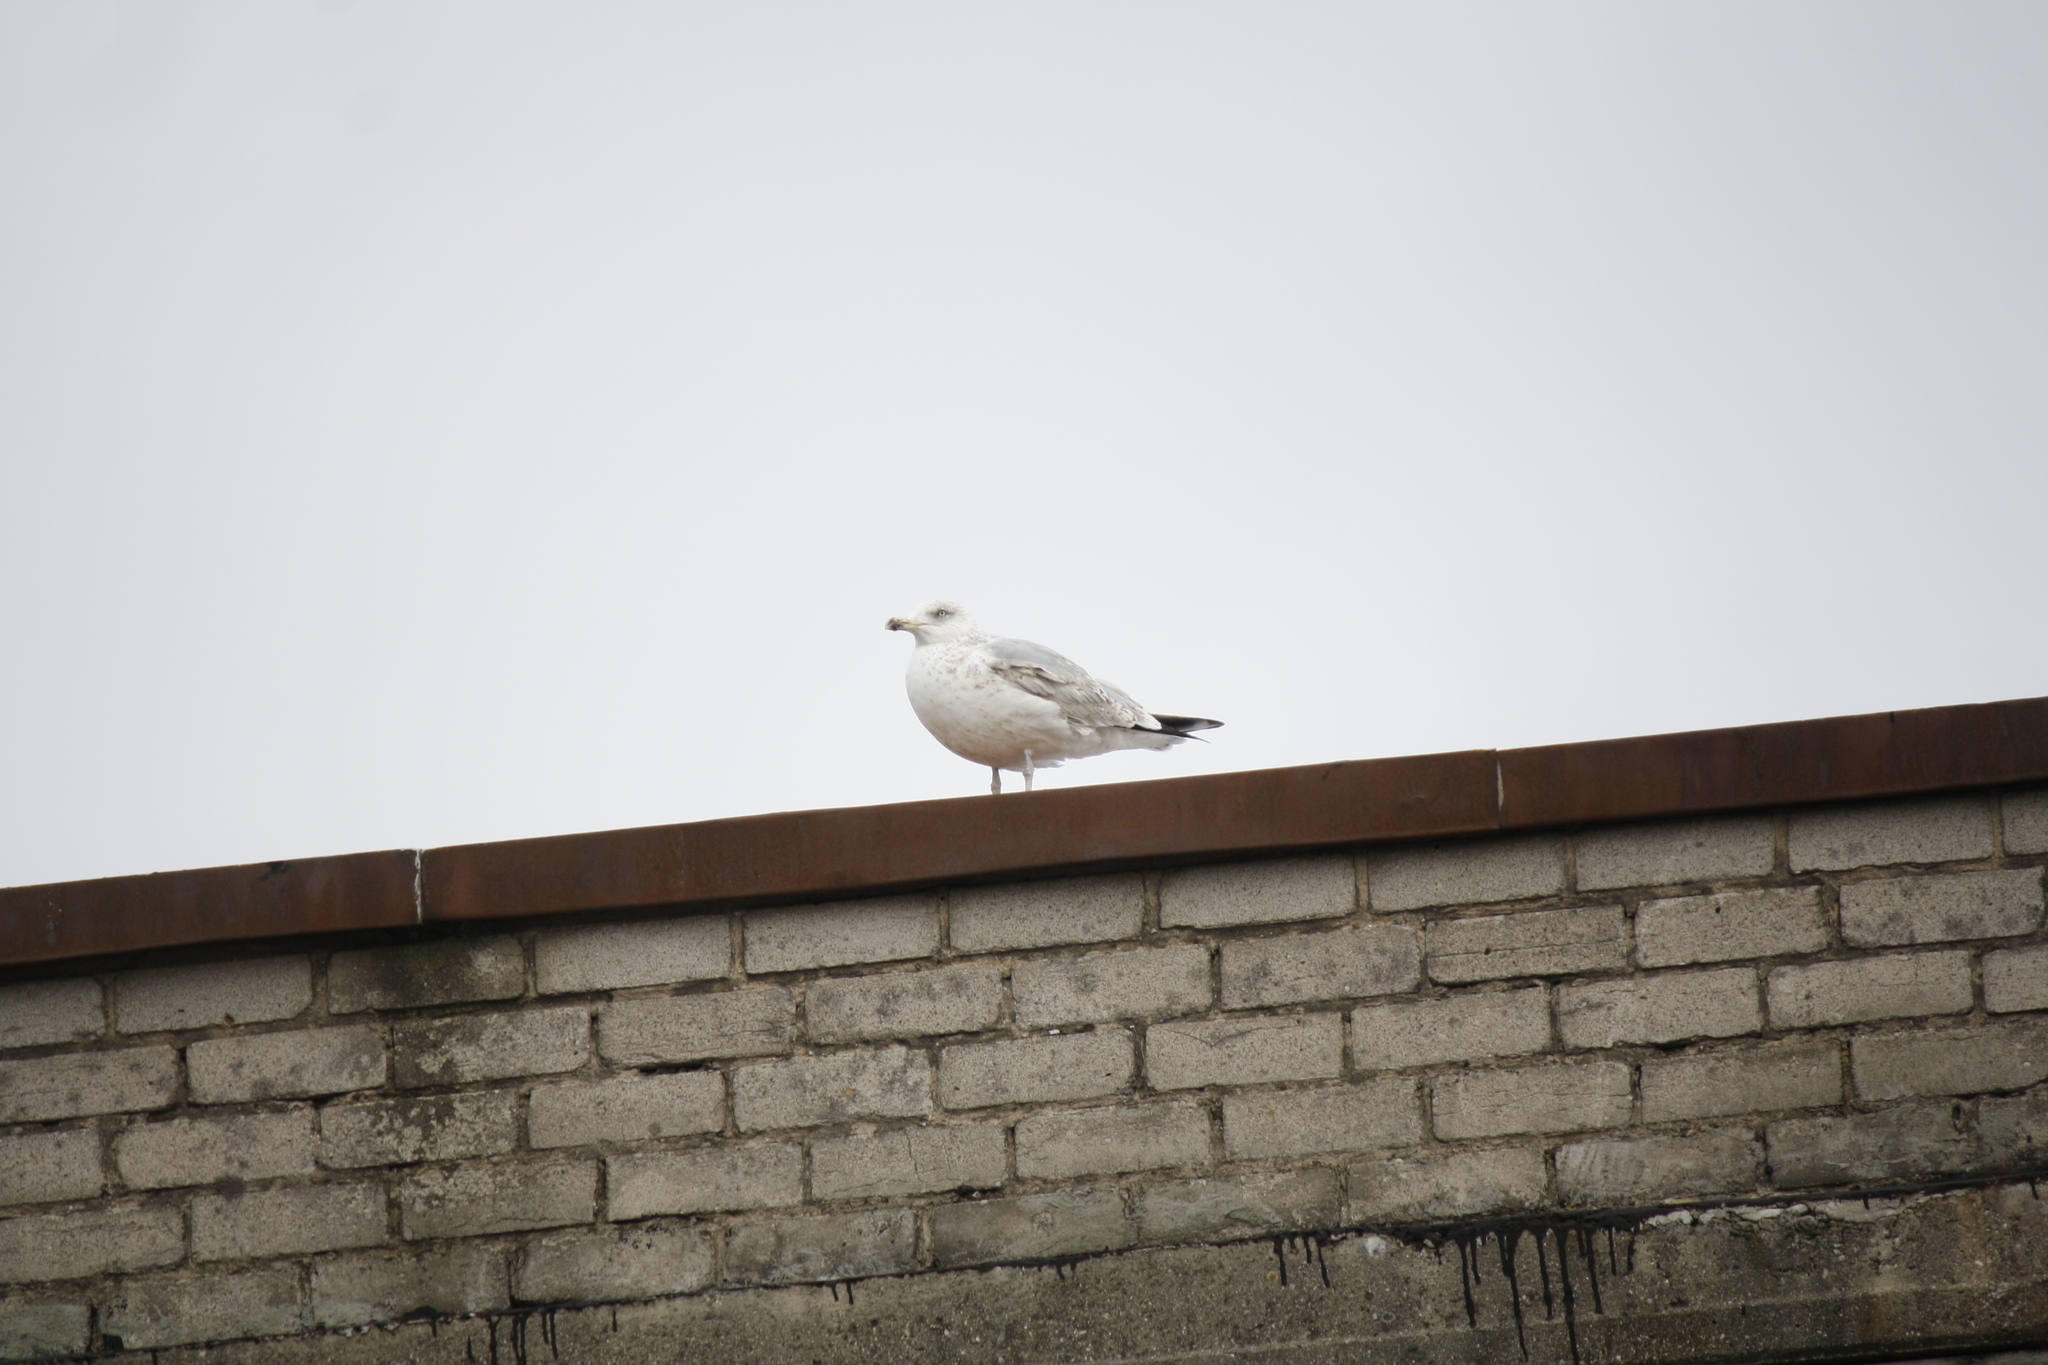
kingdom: Animalia
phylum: Chordata
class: Aves
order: Charadriiformes
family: Laridae
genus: Larus
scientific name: Larus argentatus
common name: Herring gull
